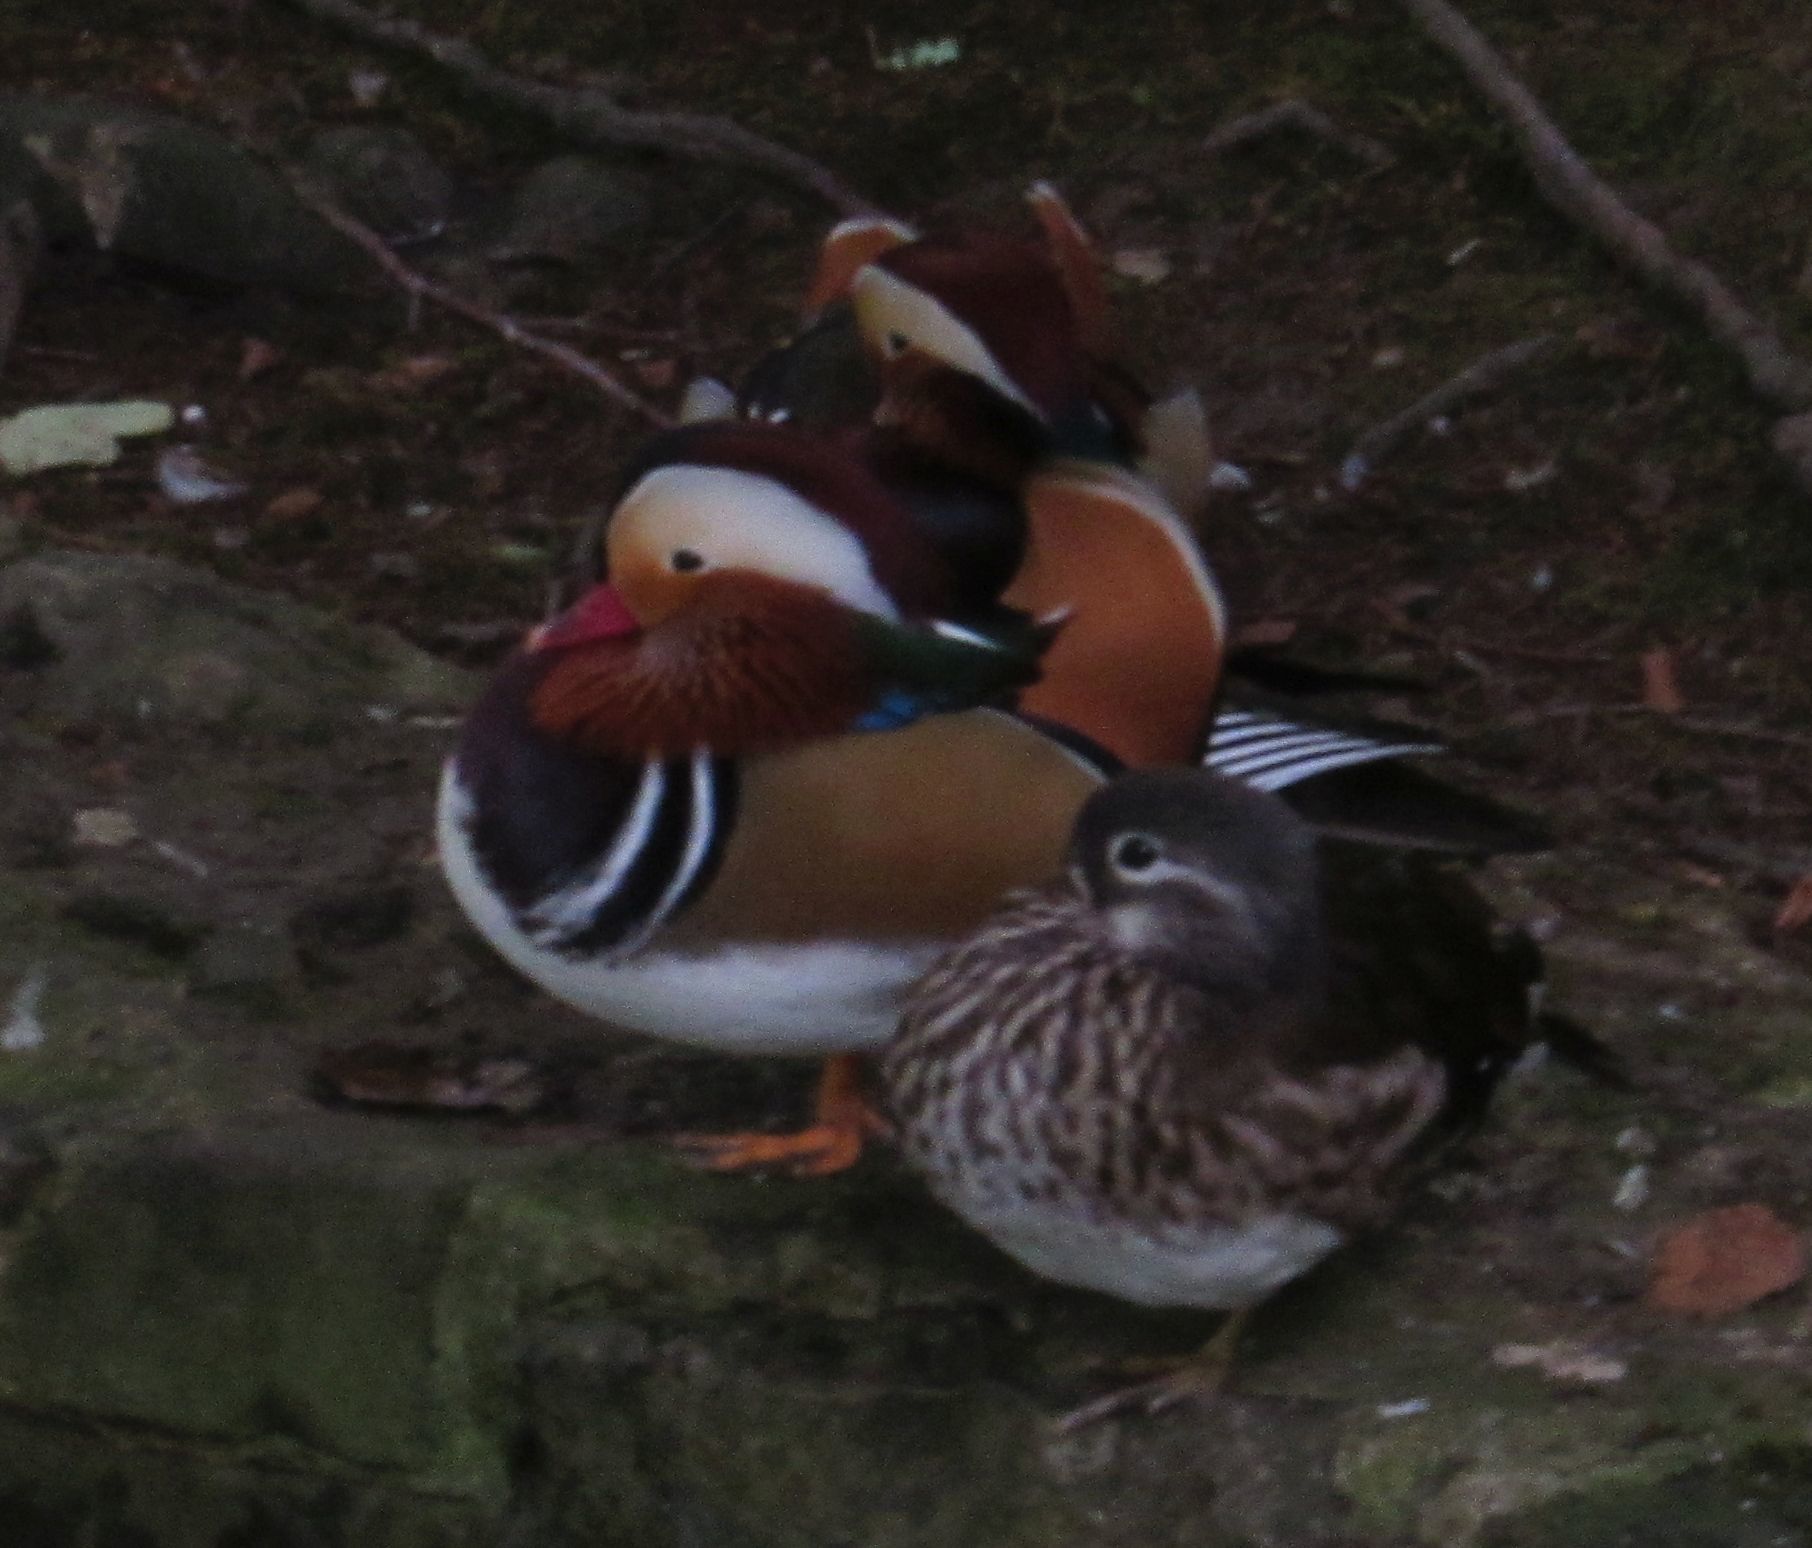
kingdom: Animalia
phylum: Chordata
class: Aves
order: Anseriformes
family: Anatidae
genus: Aix
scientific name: Aix galericulata
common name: Mandarin duck
